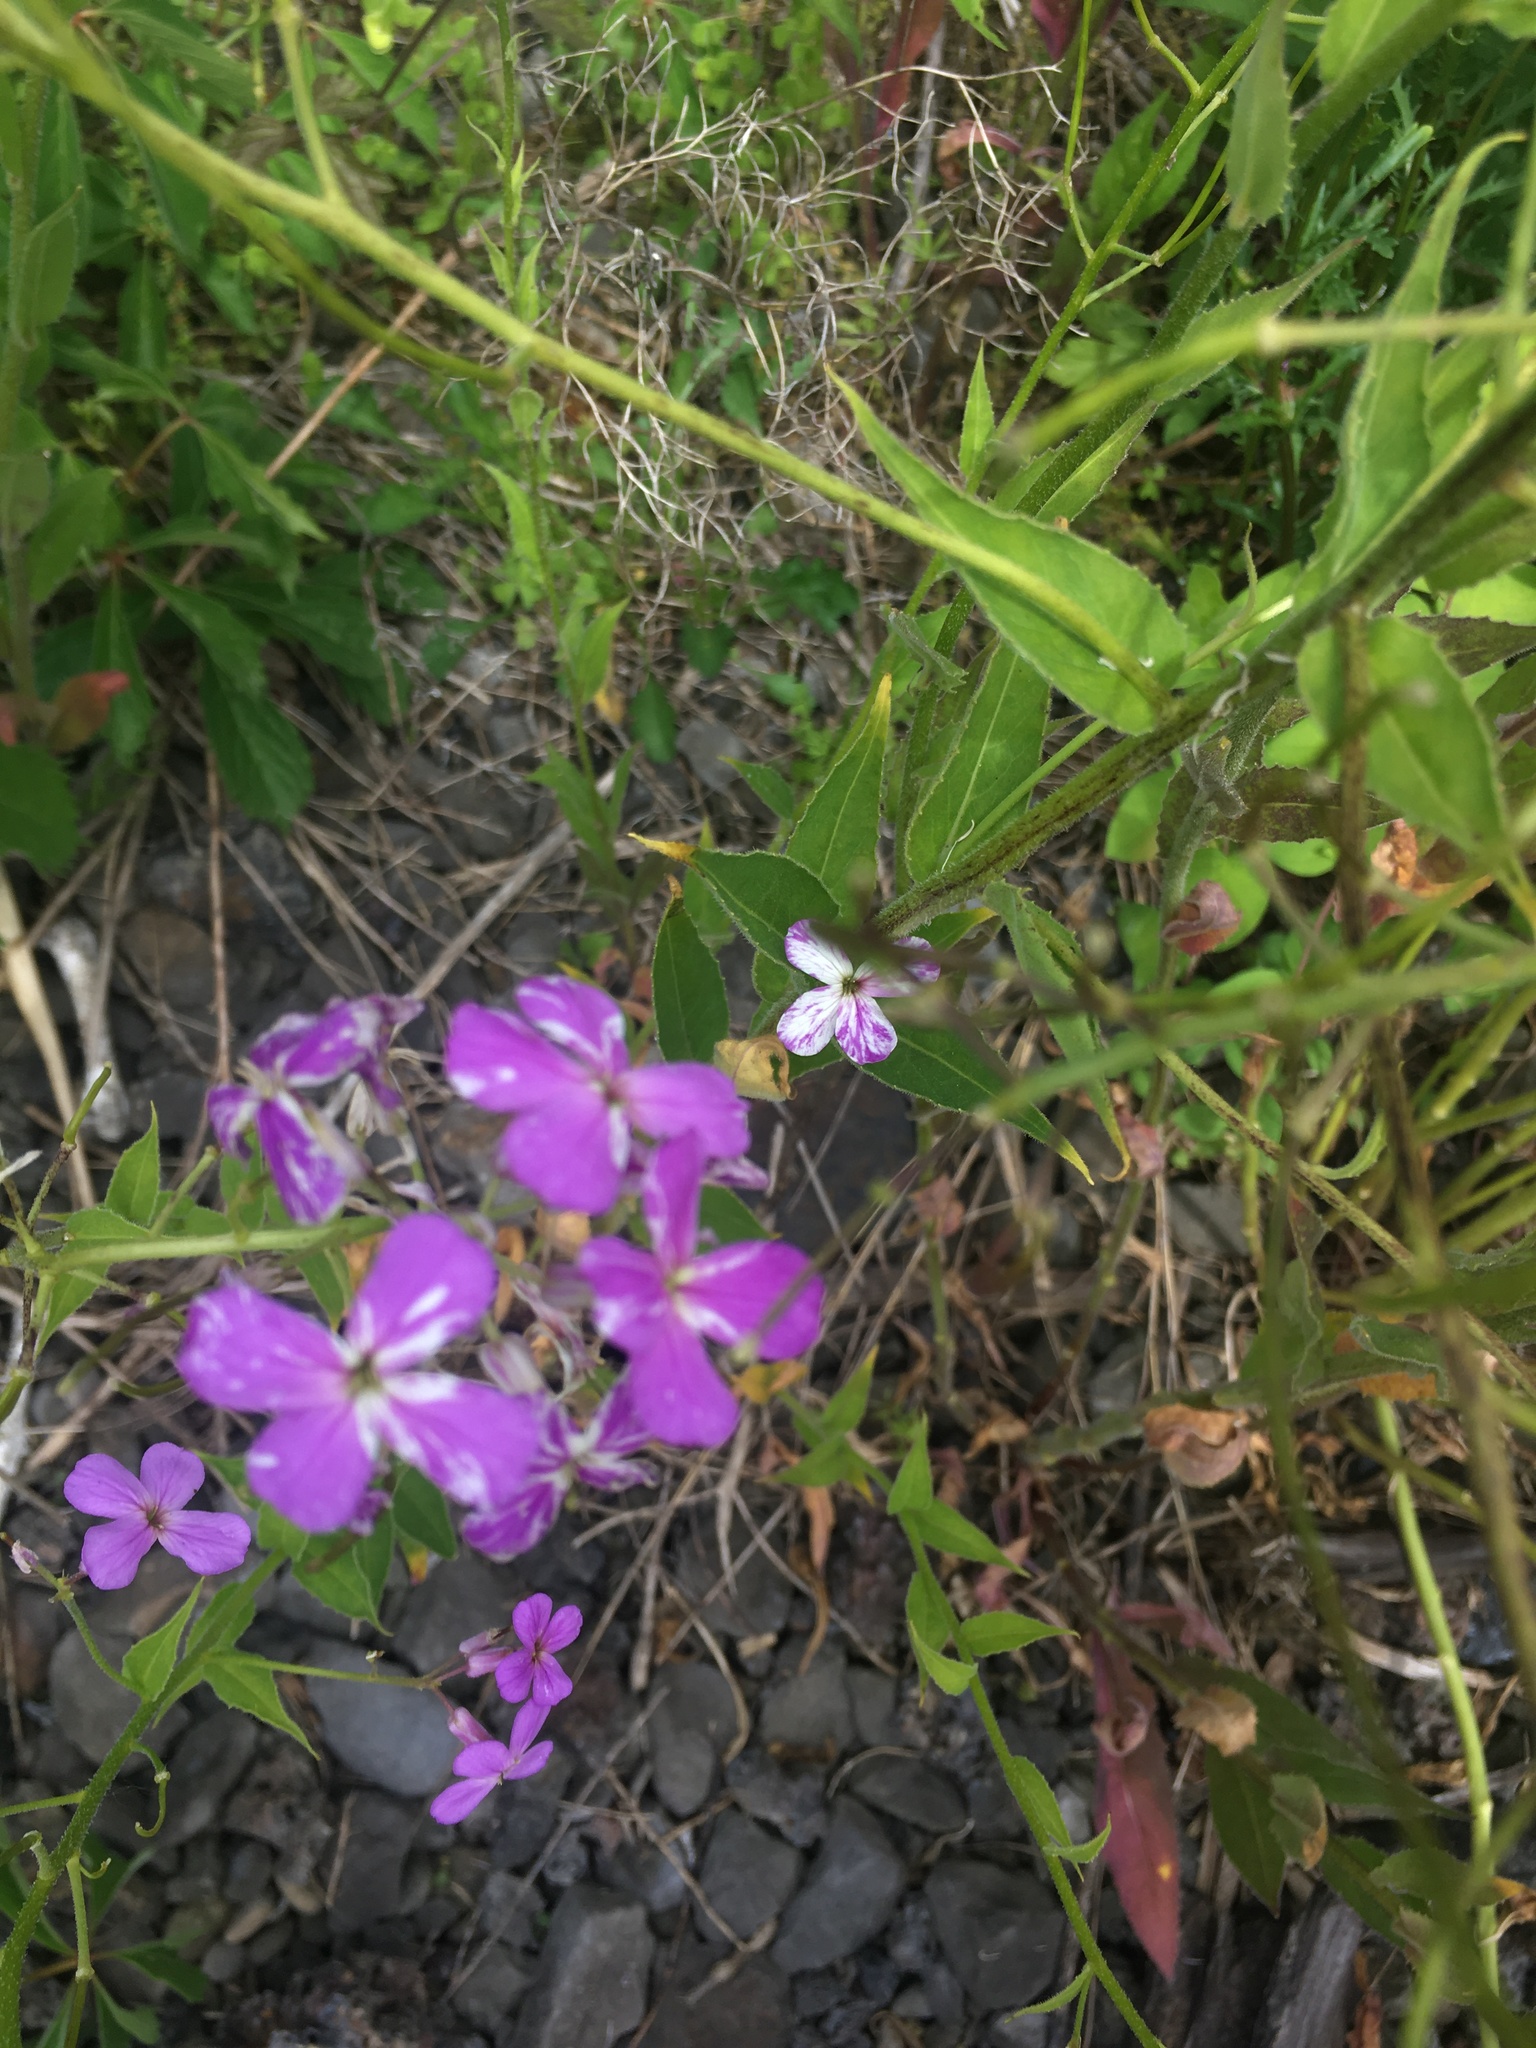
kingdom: Viruses
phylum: Pisuviricota
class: Stelpaviricetes
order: Patatavirales
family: Potyviridae
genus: Potyvirus
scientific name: Potyvirus Turnip mosaic virus
